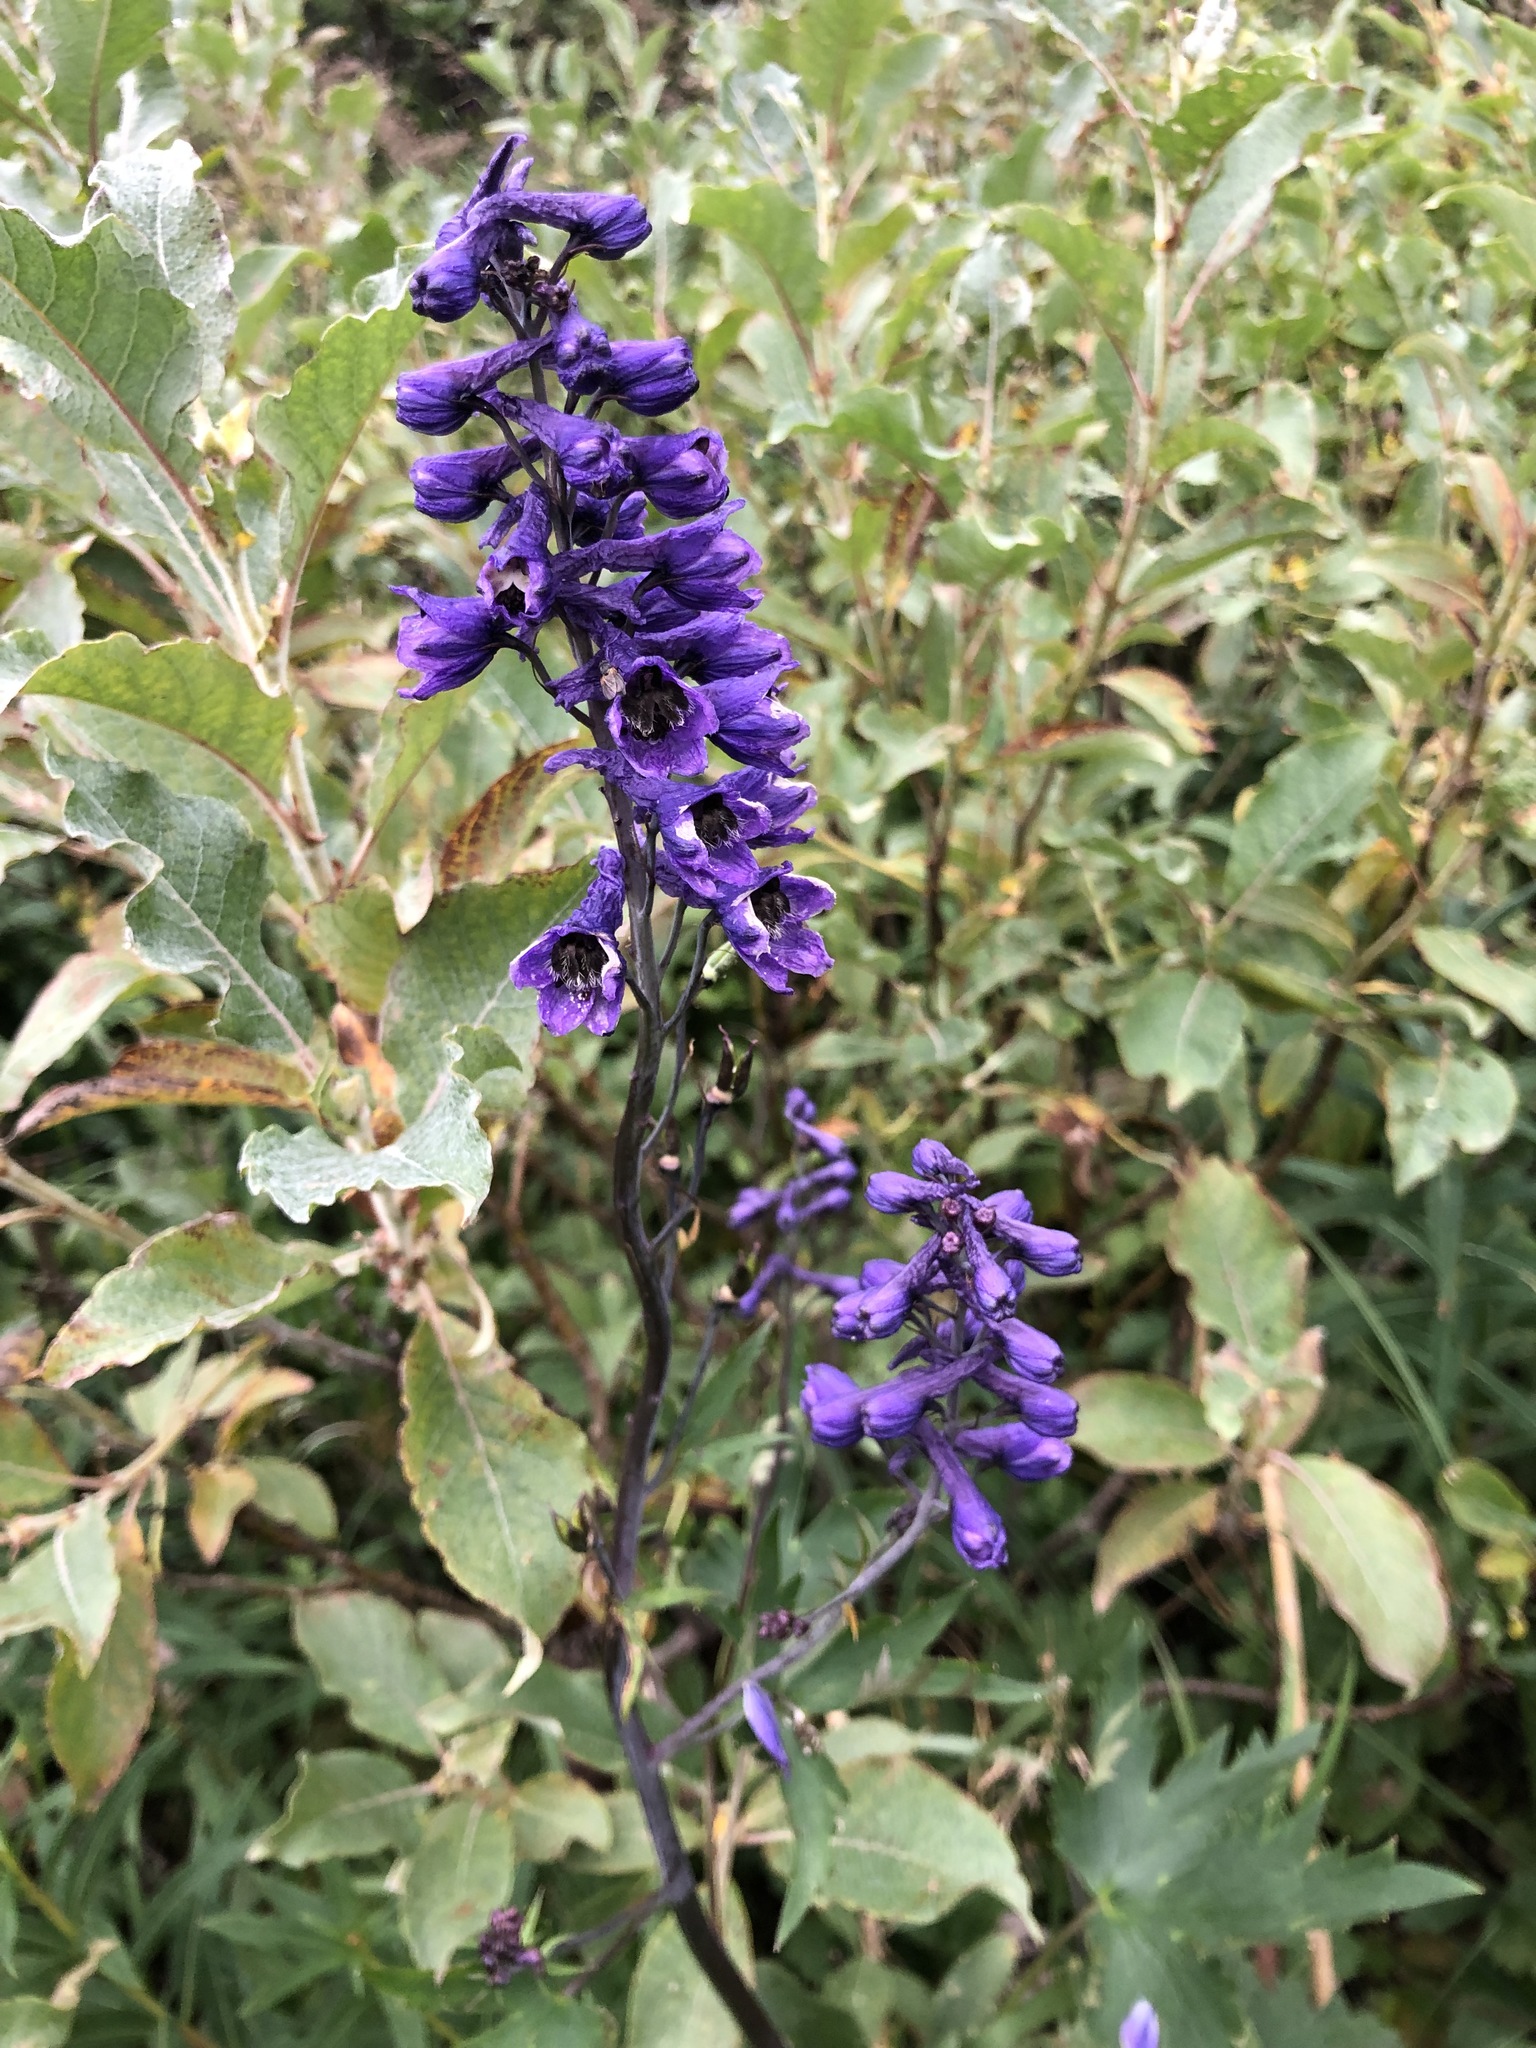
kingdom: Plantae
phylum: Tracheophyta
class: Magnoliopsida
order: Ranunculales
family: Ranunculaceae
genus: Delphinium
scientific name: Delphinium elatum
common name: Candle larkspur
